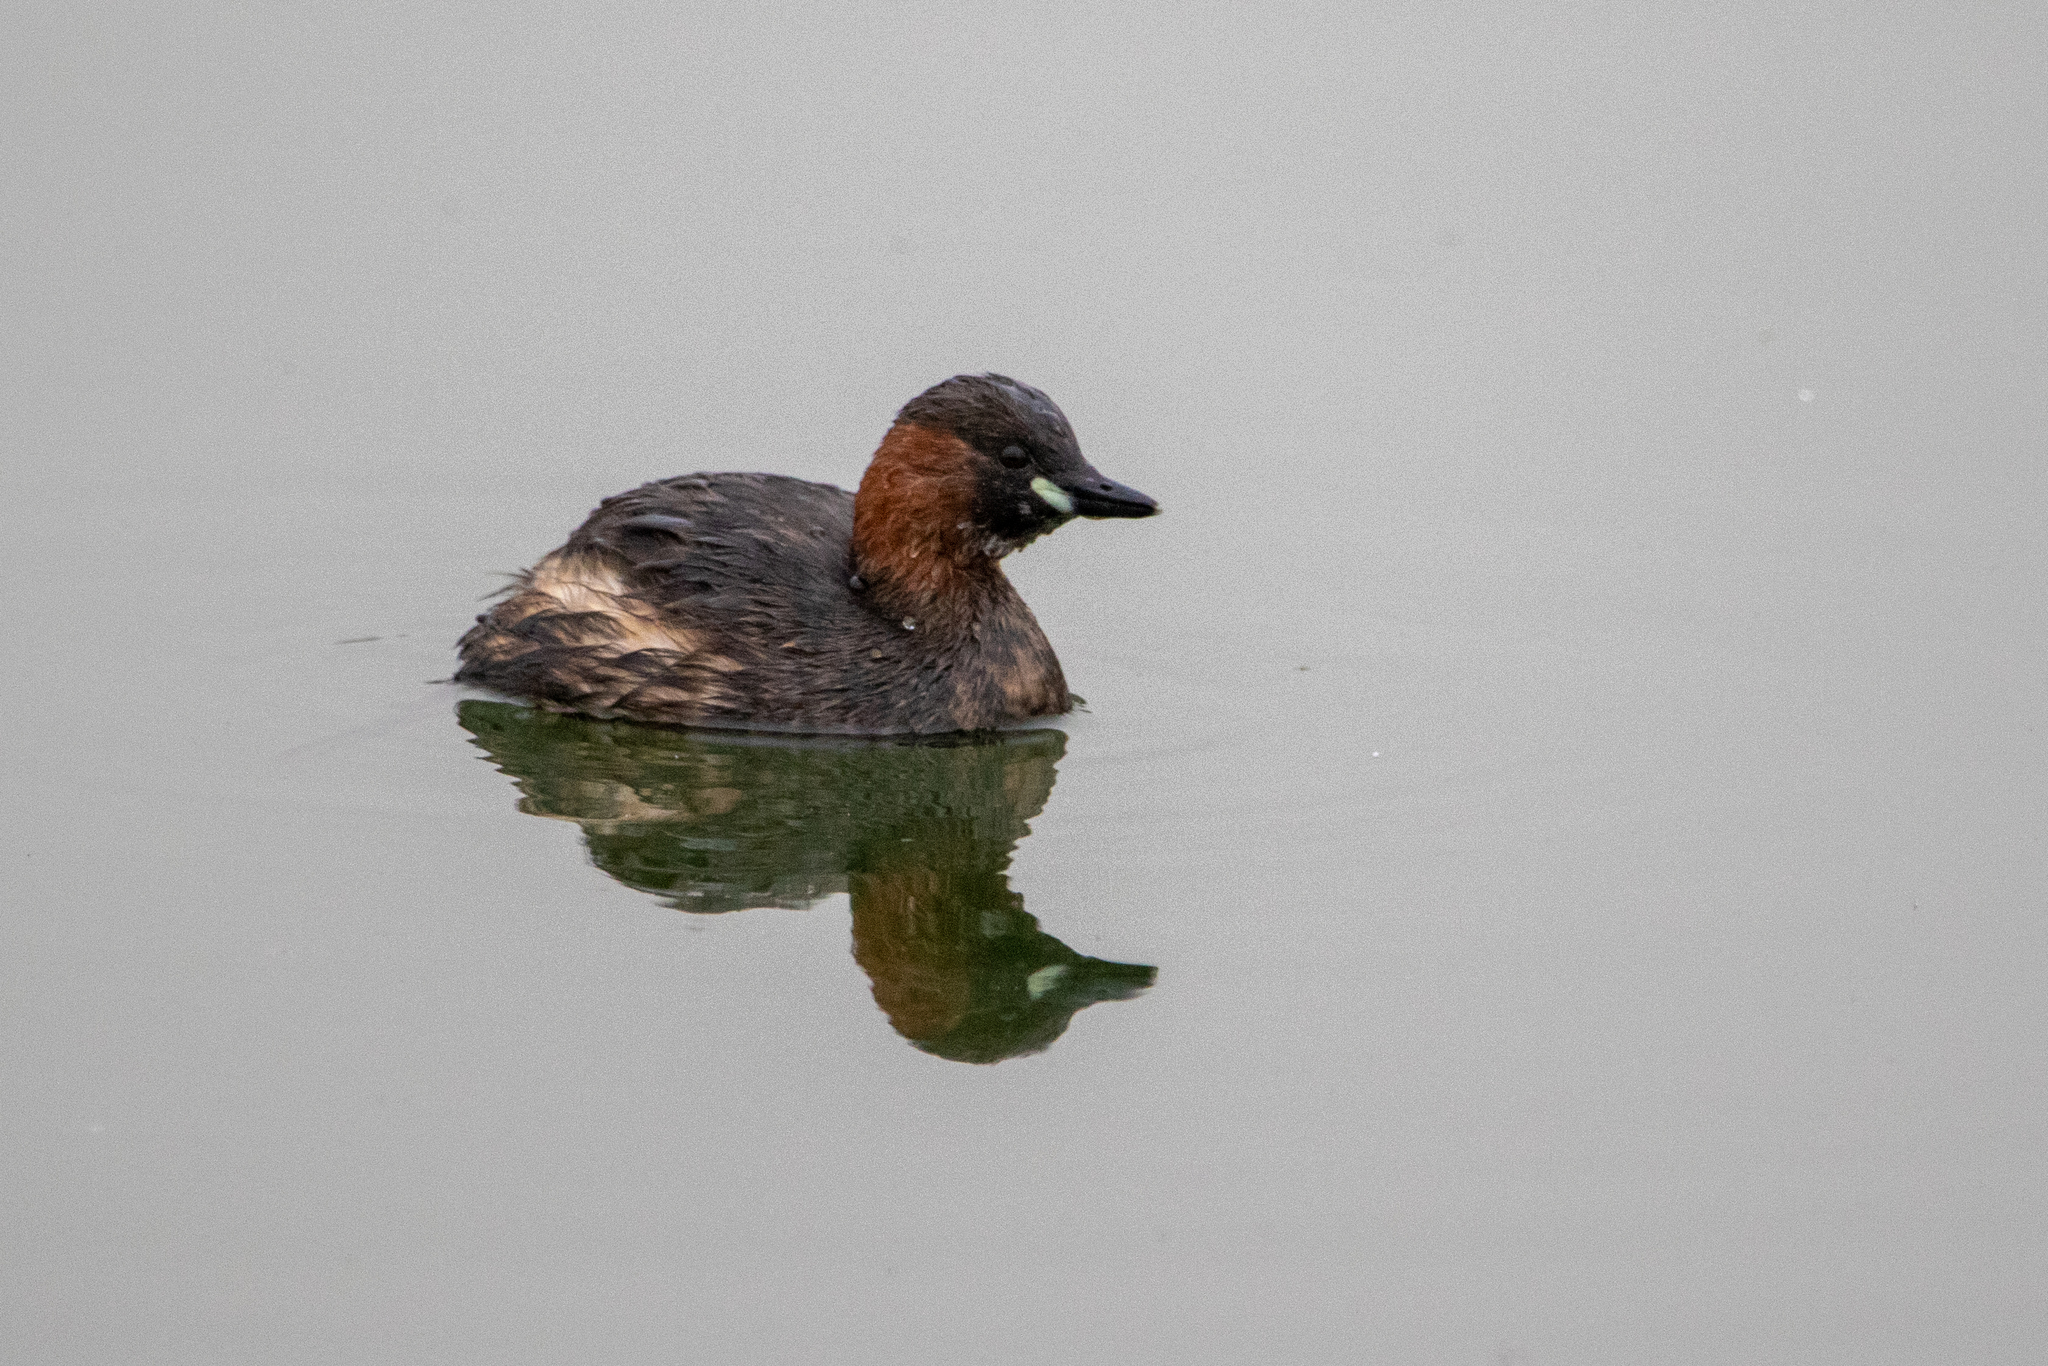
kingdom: Animalia
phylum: Chordata
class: Aves
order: Podicipediformes
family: Podicipedidae
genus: Tachybaptus
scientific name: Tachybaptus ruficollis
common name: Little grebe
